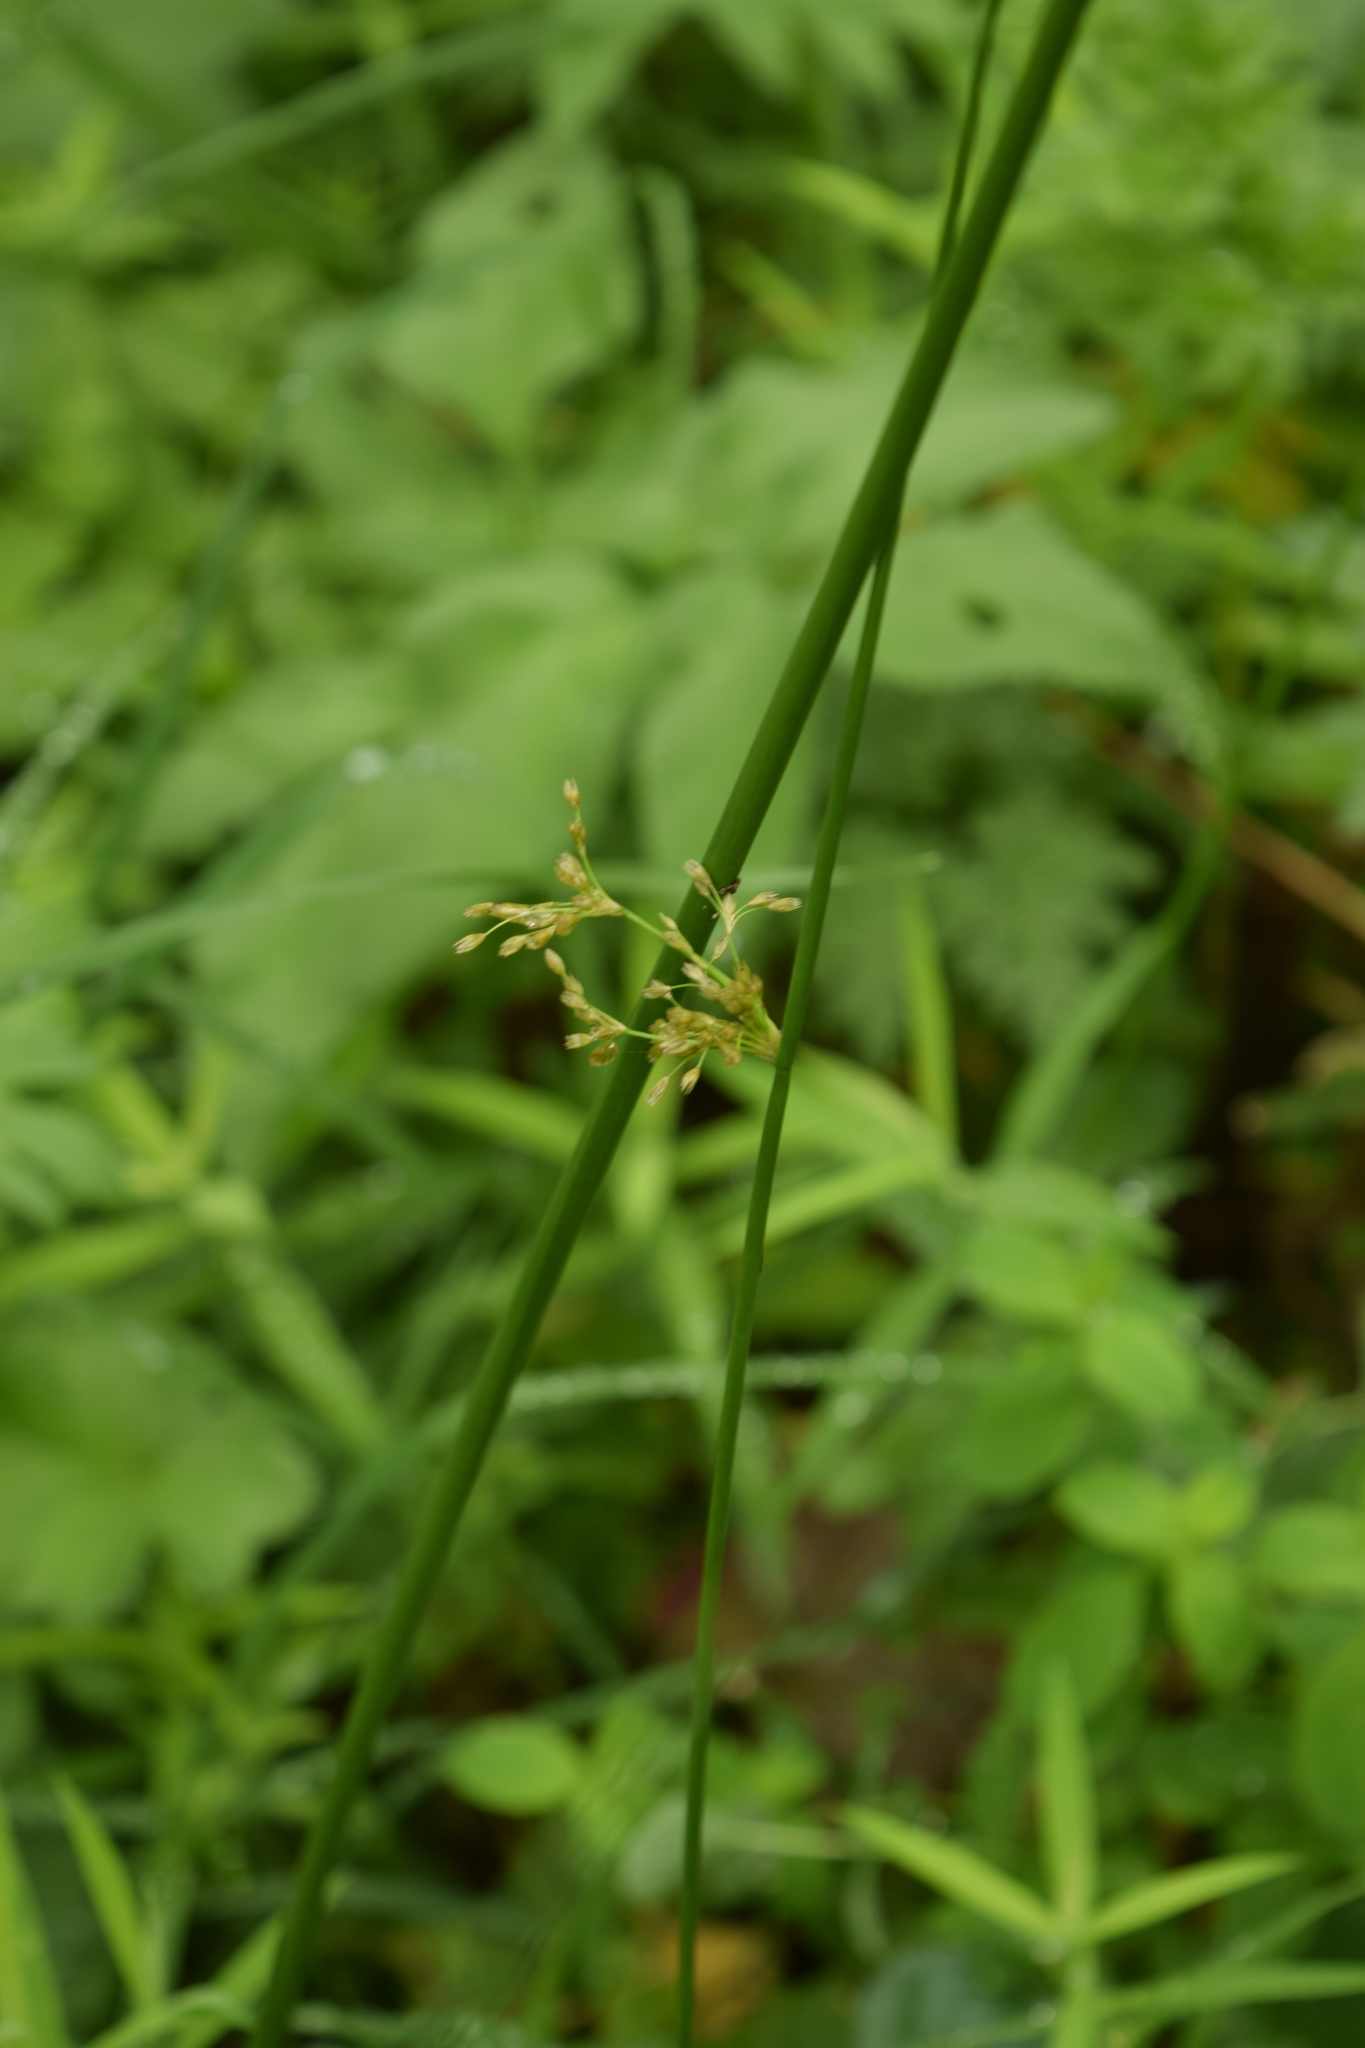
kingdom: Plantae
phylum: Tracheophyta
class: Liliopsida
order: Poales
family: Juncaceae
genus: Juncus
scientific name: Juncus effusus
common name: Soft rush
